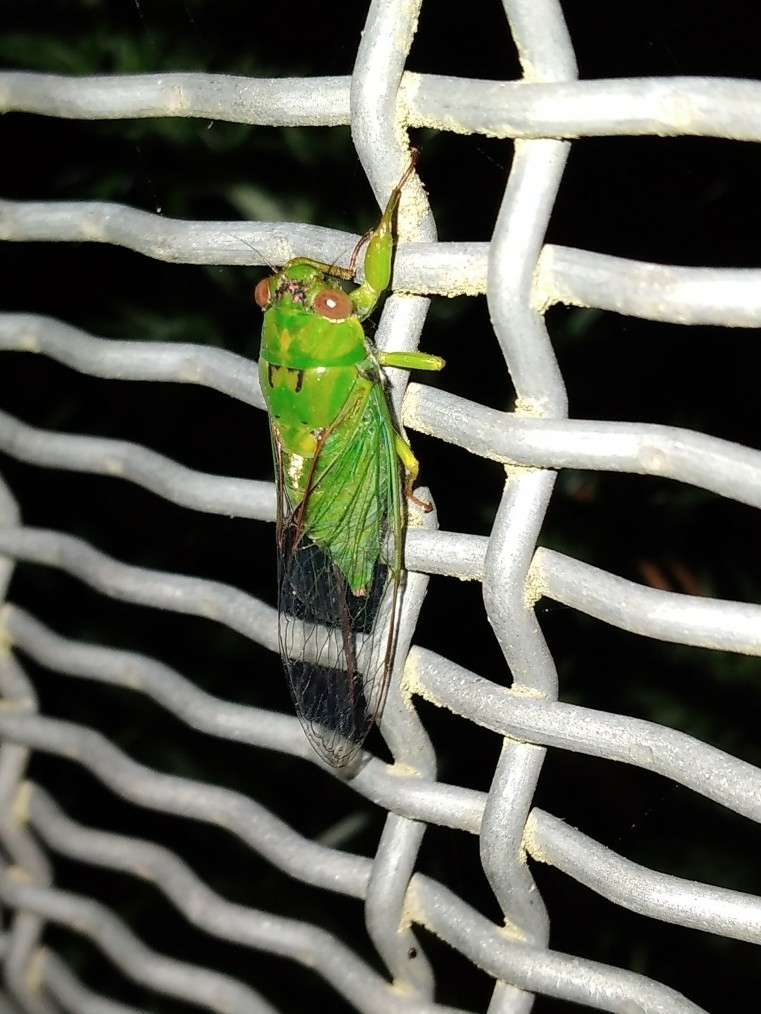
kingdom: Animalia
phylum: Arthropoda
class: Insecta
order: Hemiptera
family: Cicadidae
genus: Kikihia
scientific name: Kikihia ochrina
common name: April green cicada
